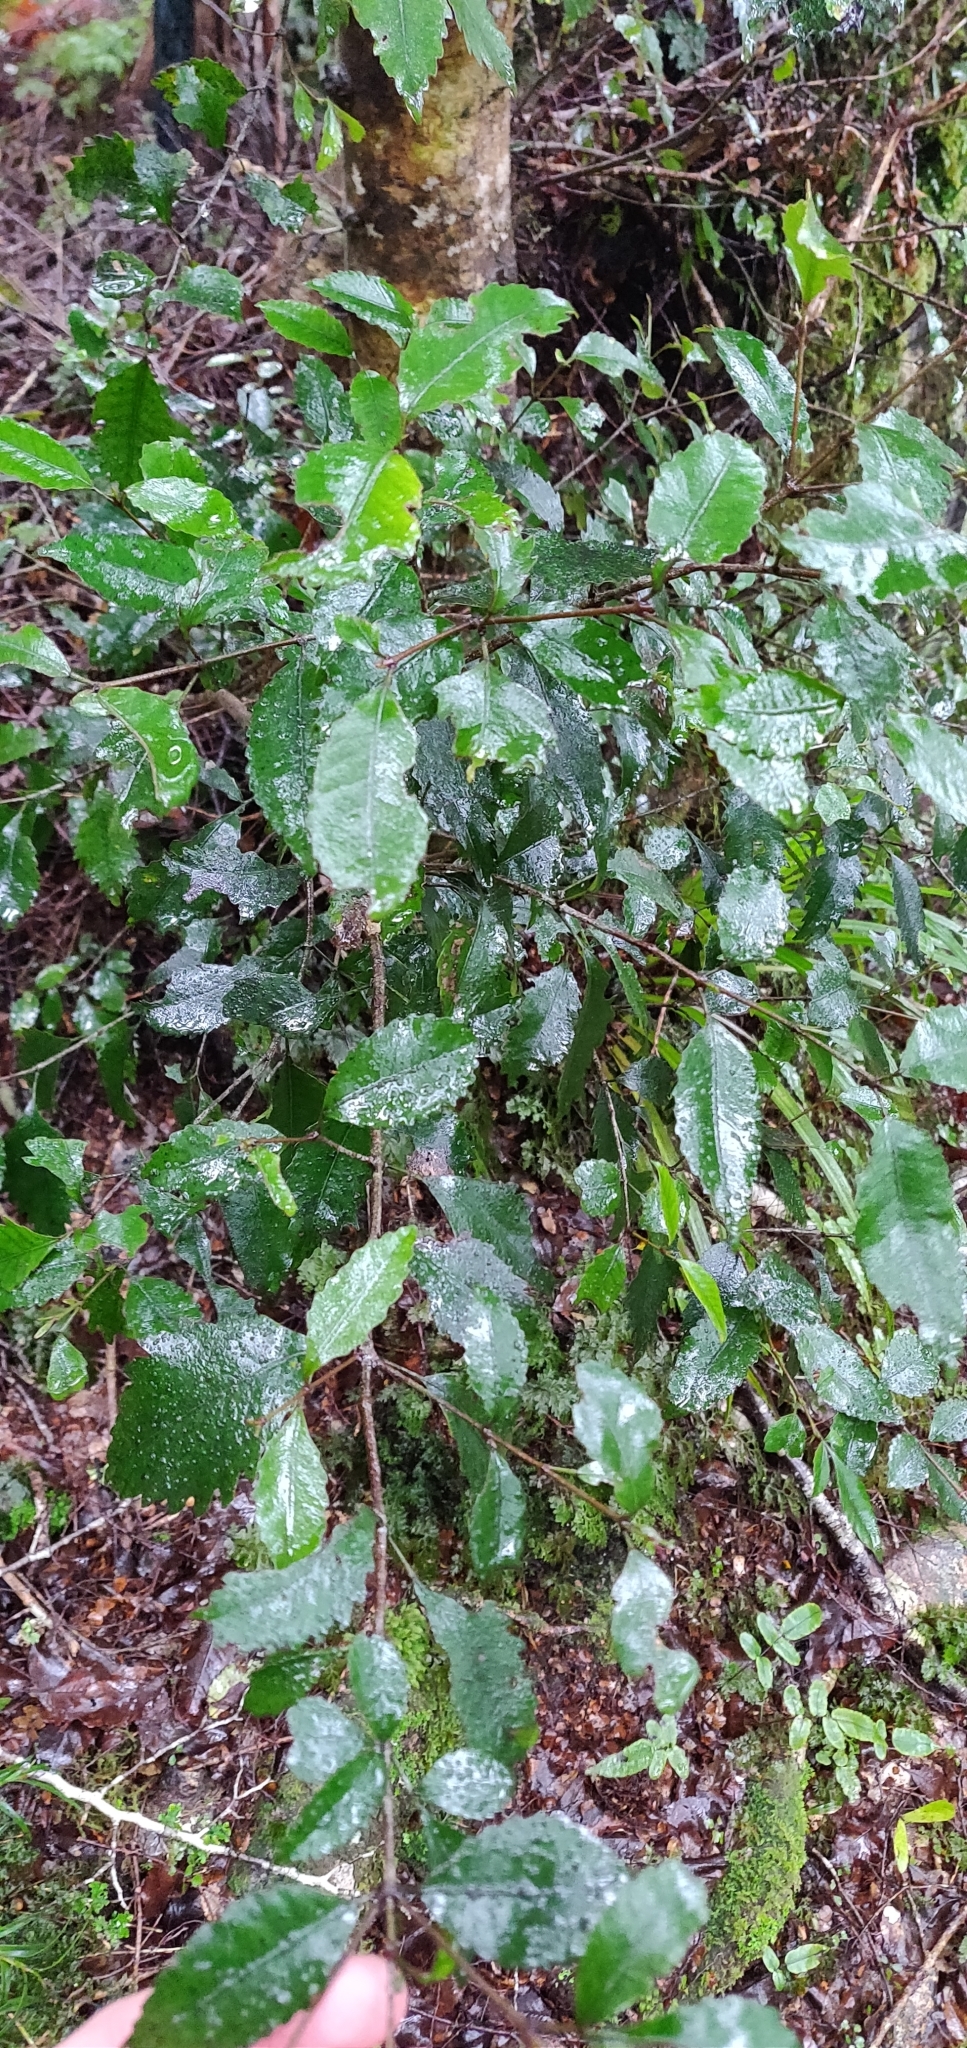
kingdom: Plantae
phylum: Tracheophyta
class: Magnoliopsida
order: Oxalidales
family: Cunoniaceae
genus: Pterophylla
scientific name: Pterophylla racemosa
